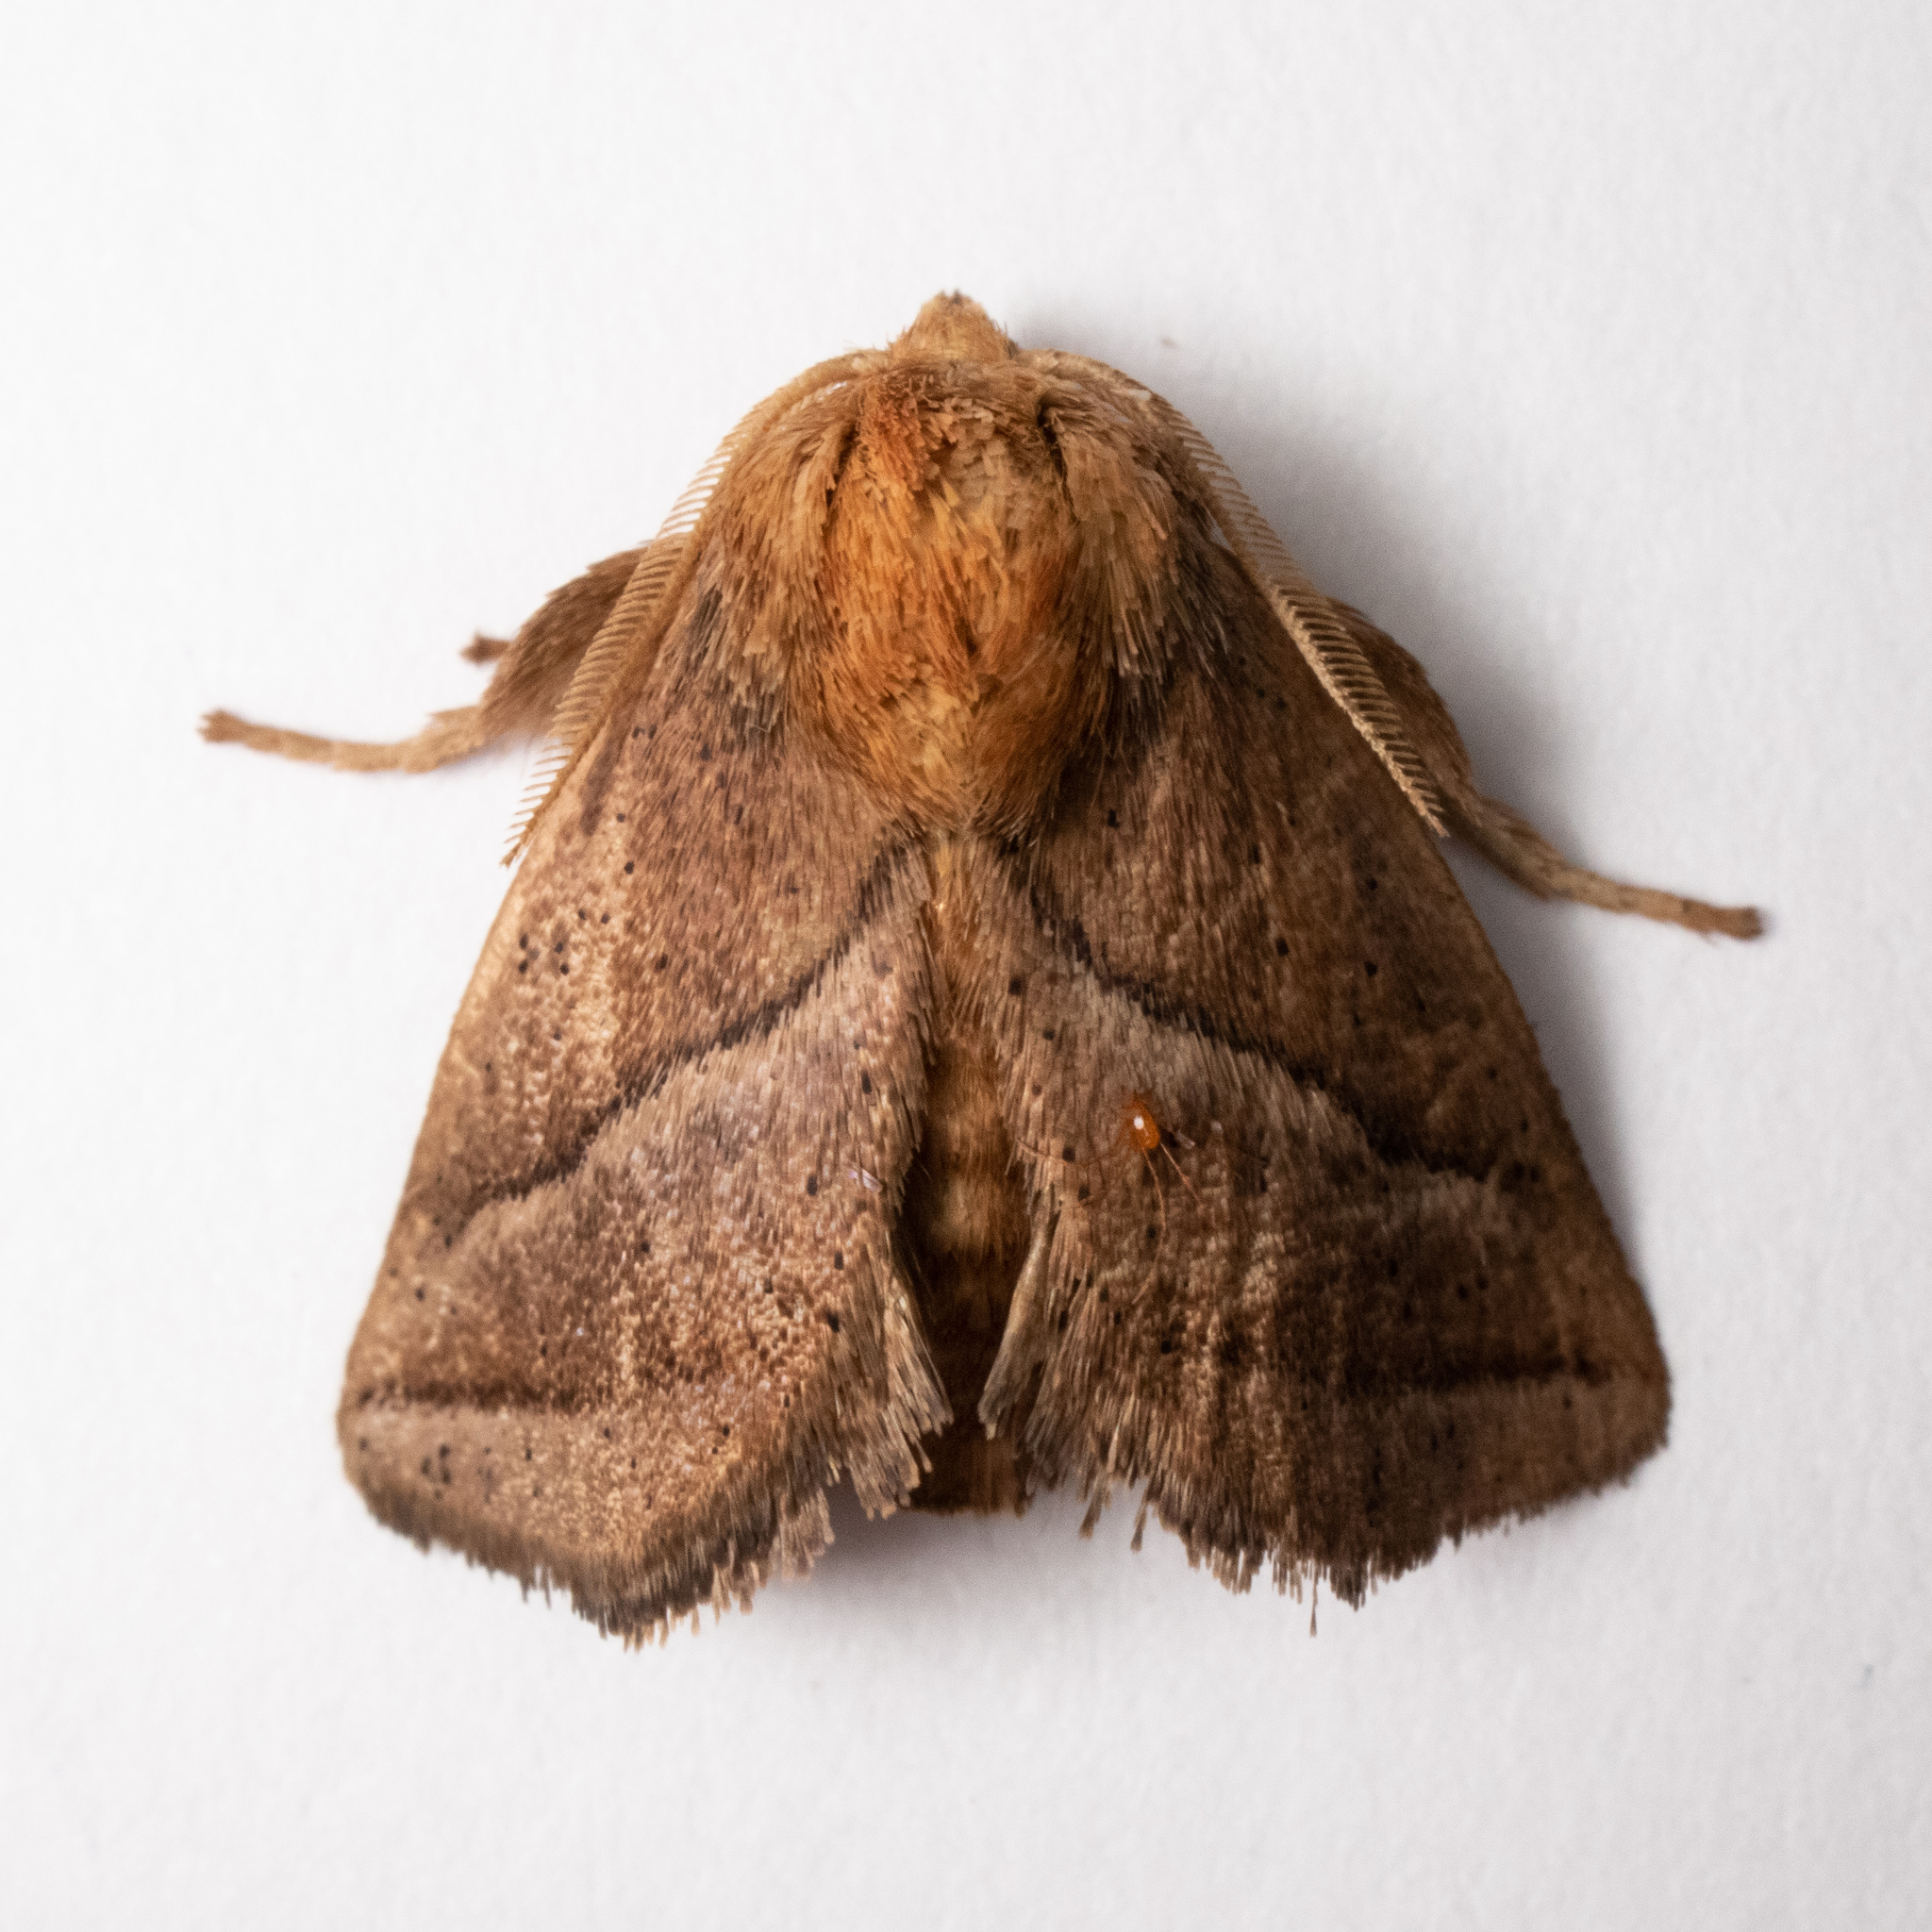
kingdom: Animalia
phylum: Arthropoda
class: Insecta
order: Lepidoptera
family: Limacodidae
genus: Natada
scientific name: Natada nasoni
